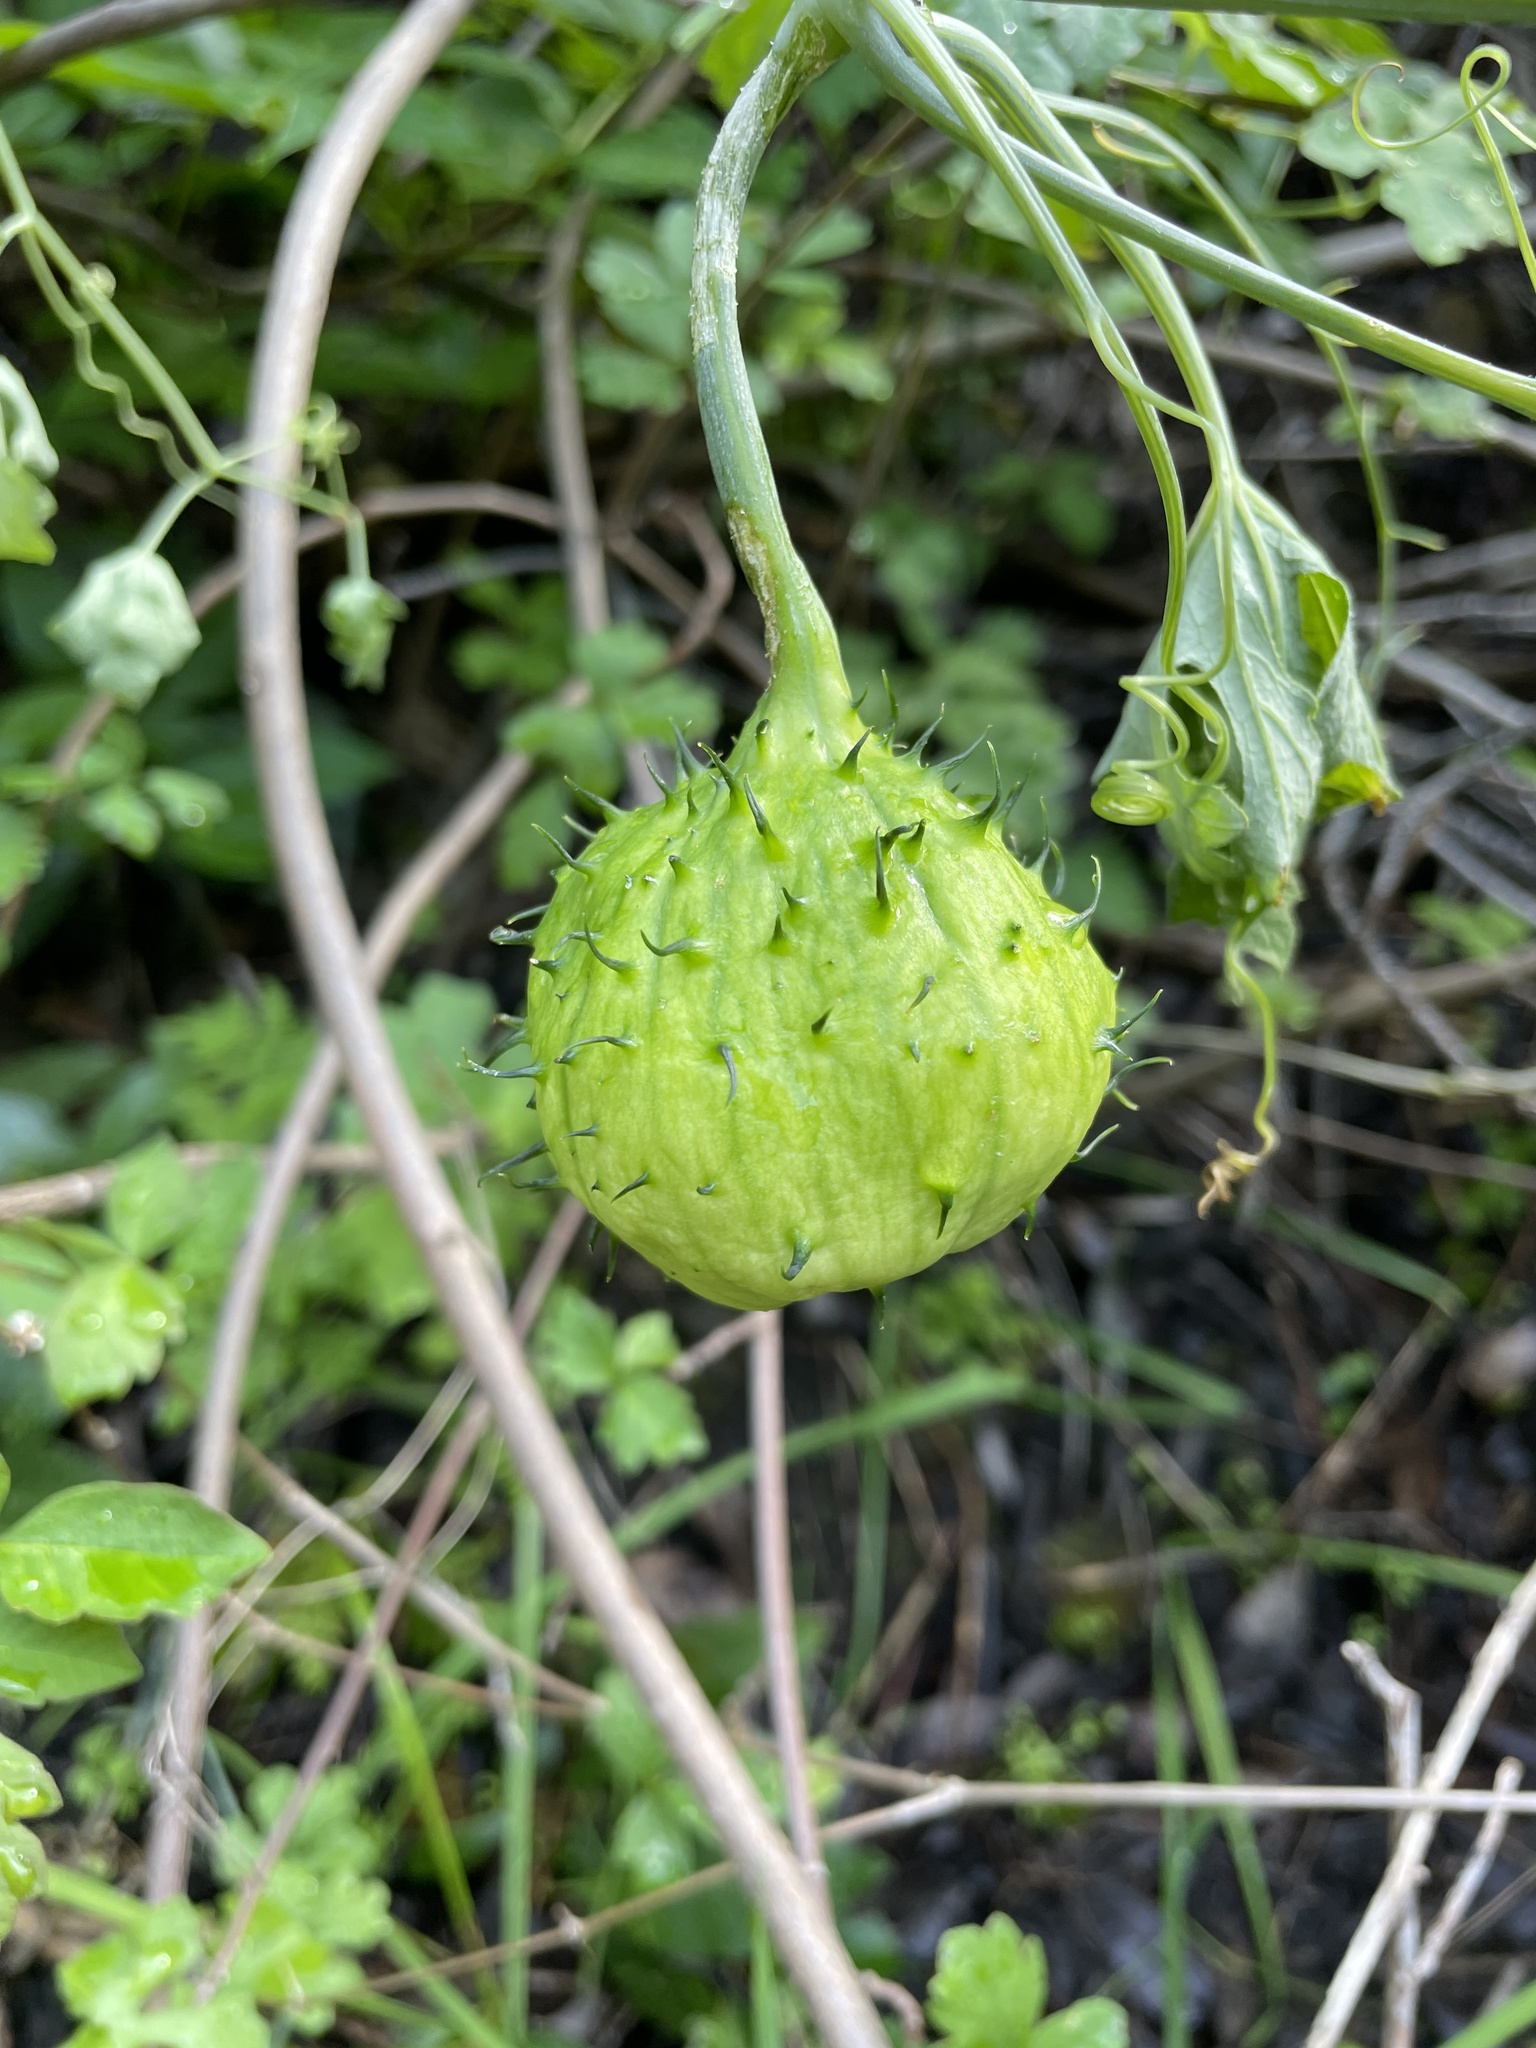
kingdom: Plantae
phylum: Tracheophyta
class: Magnoliopsida
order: Cucurbitales
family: Cucurbitaceae
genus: Marah
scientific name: Marah watsonii
